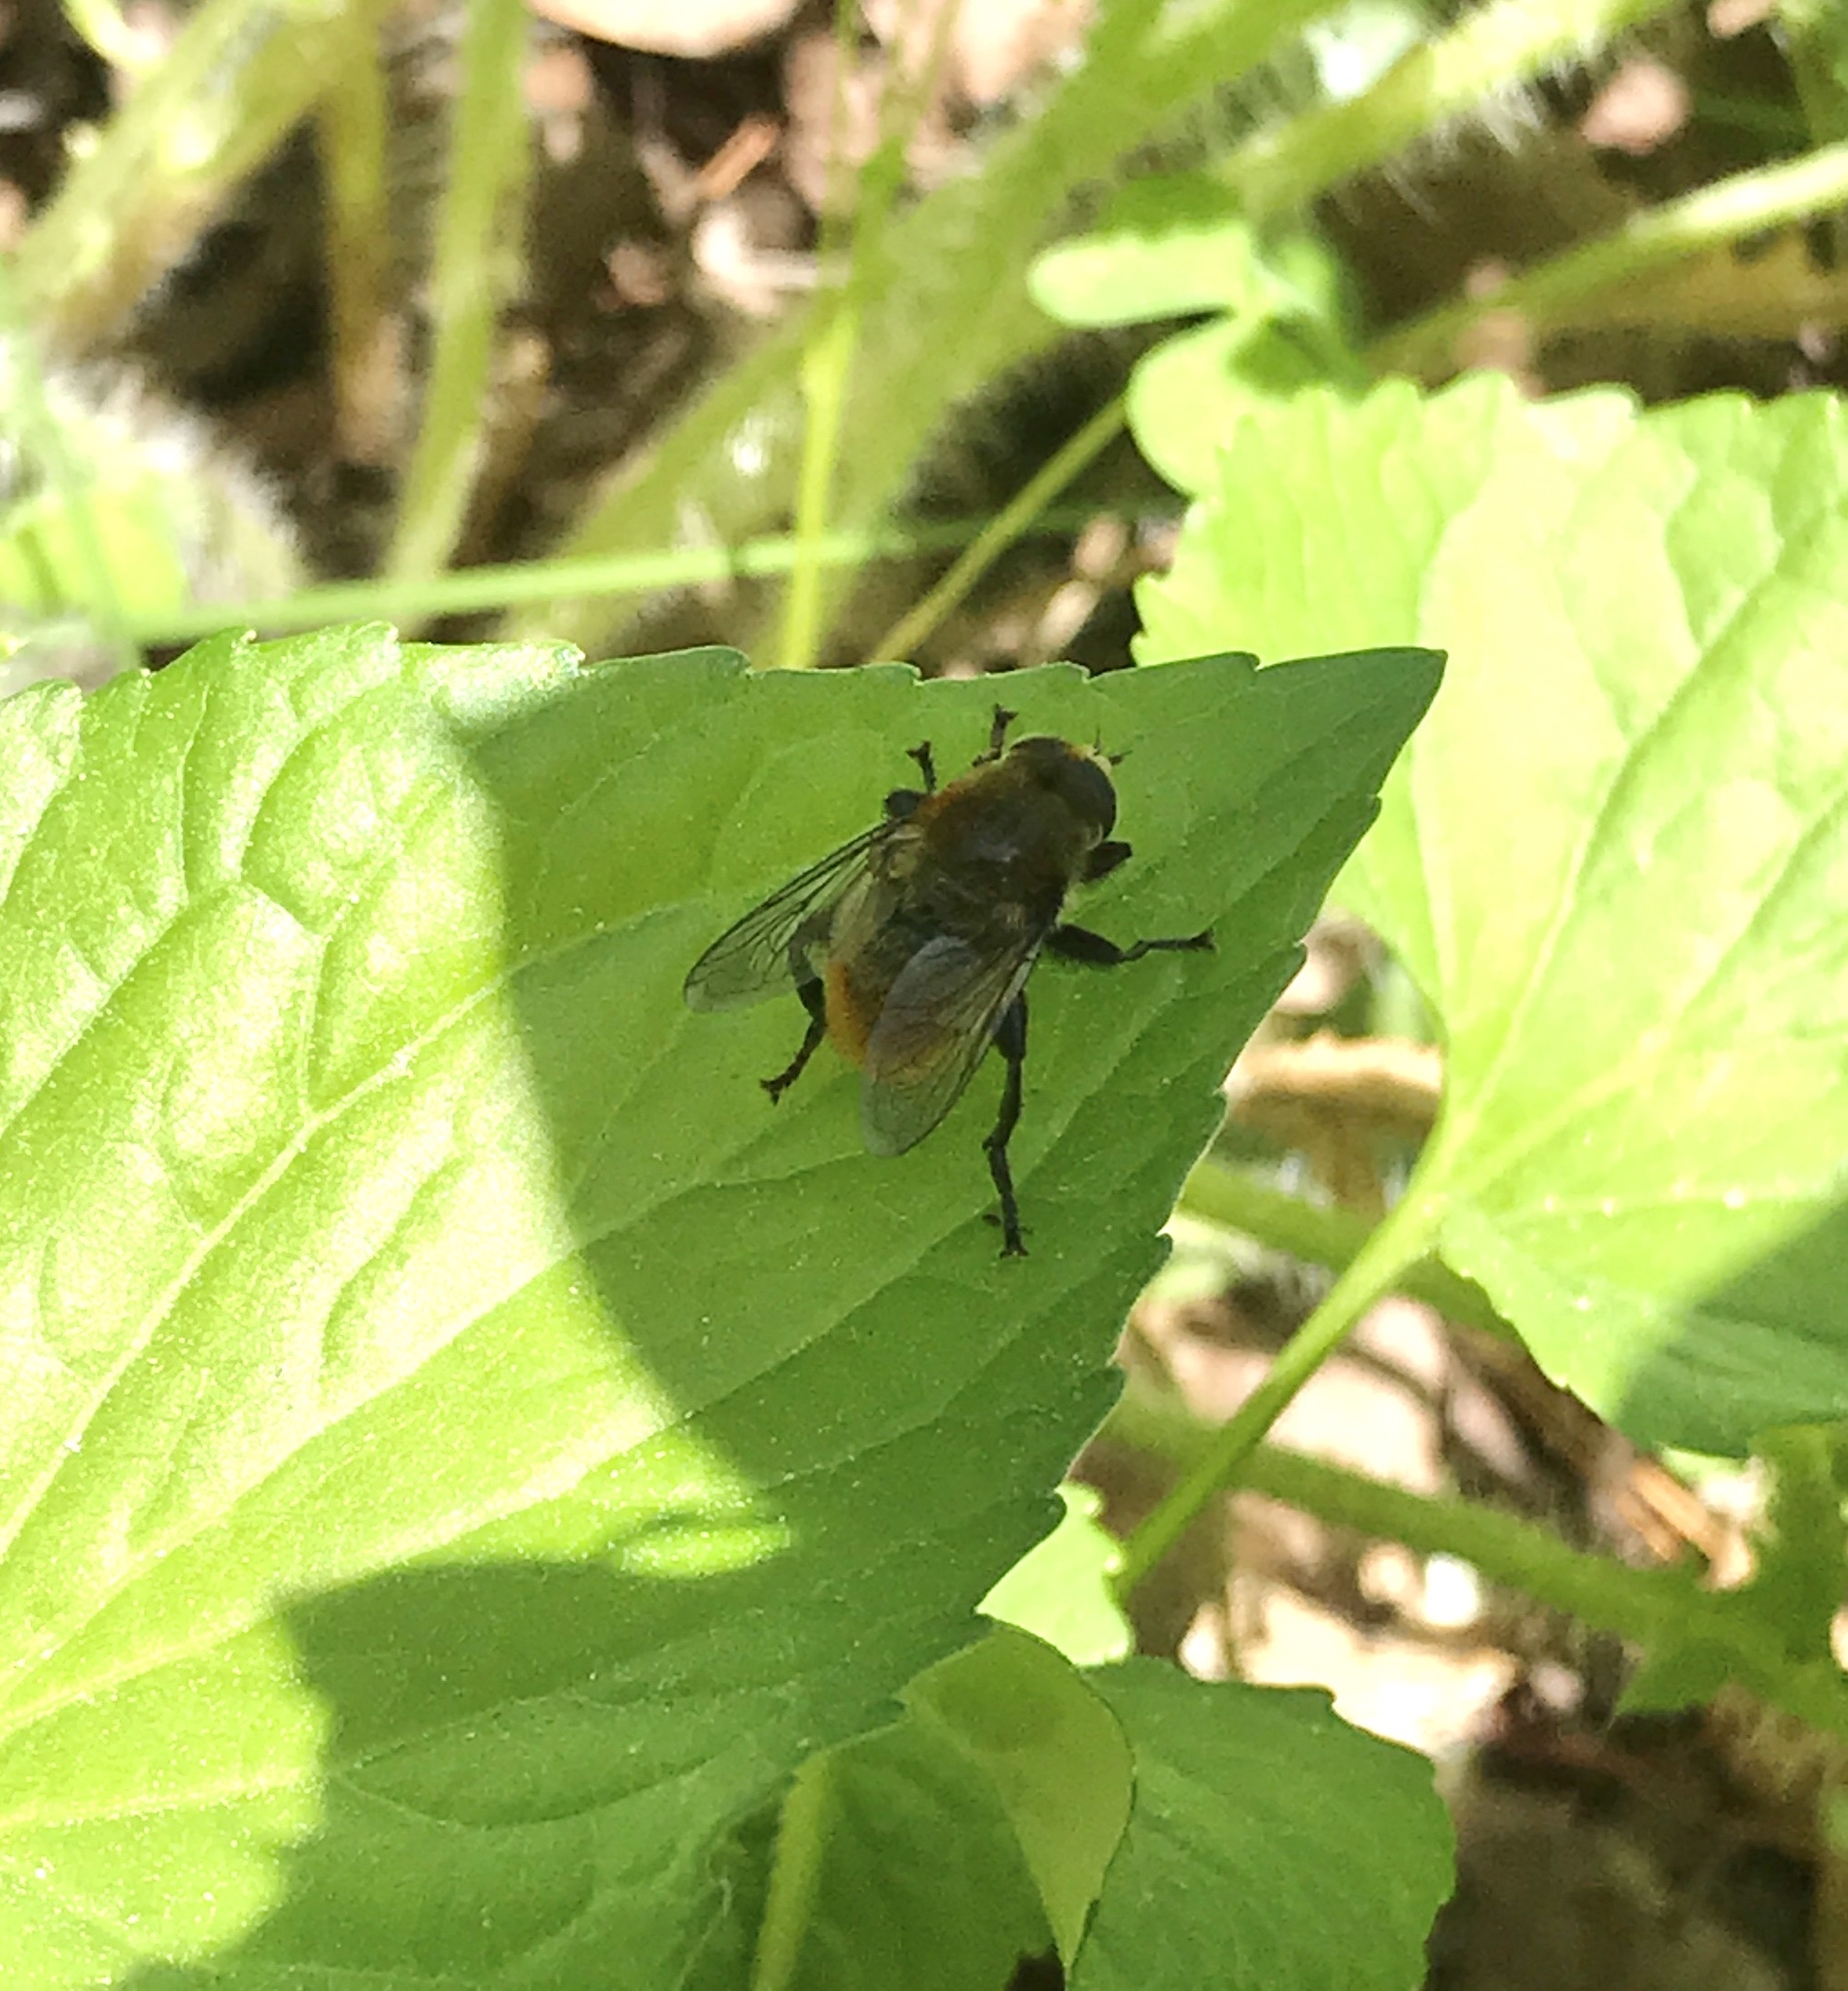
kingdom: Animalia
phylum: Arthropoda
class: Insecta
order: Diptera
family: Syrphidae
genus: Merodon
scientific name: Merodon equestris
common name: Greater bulb-fly
